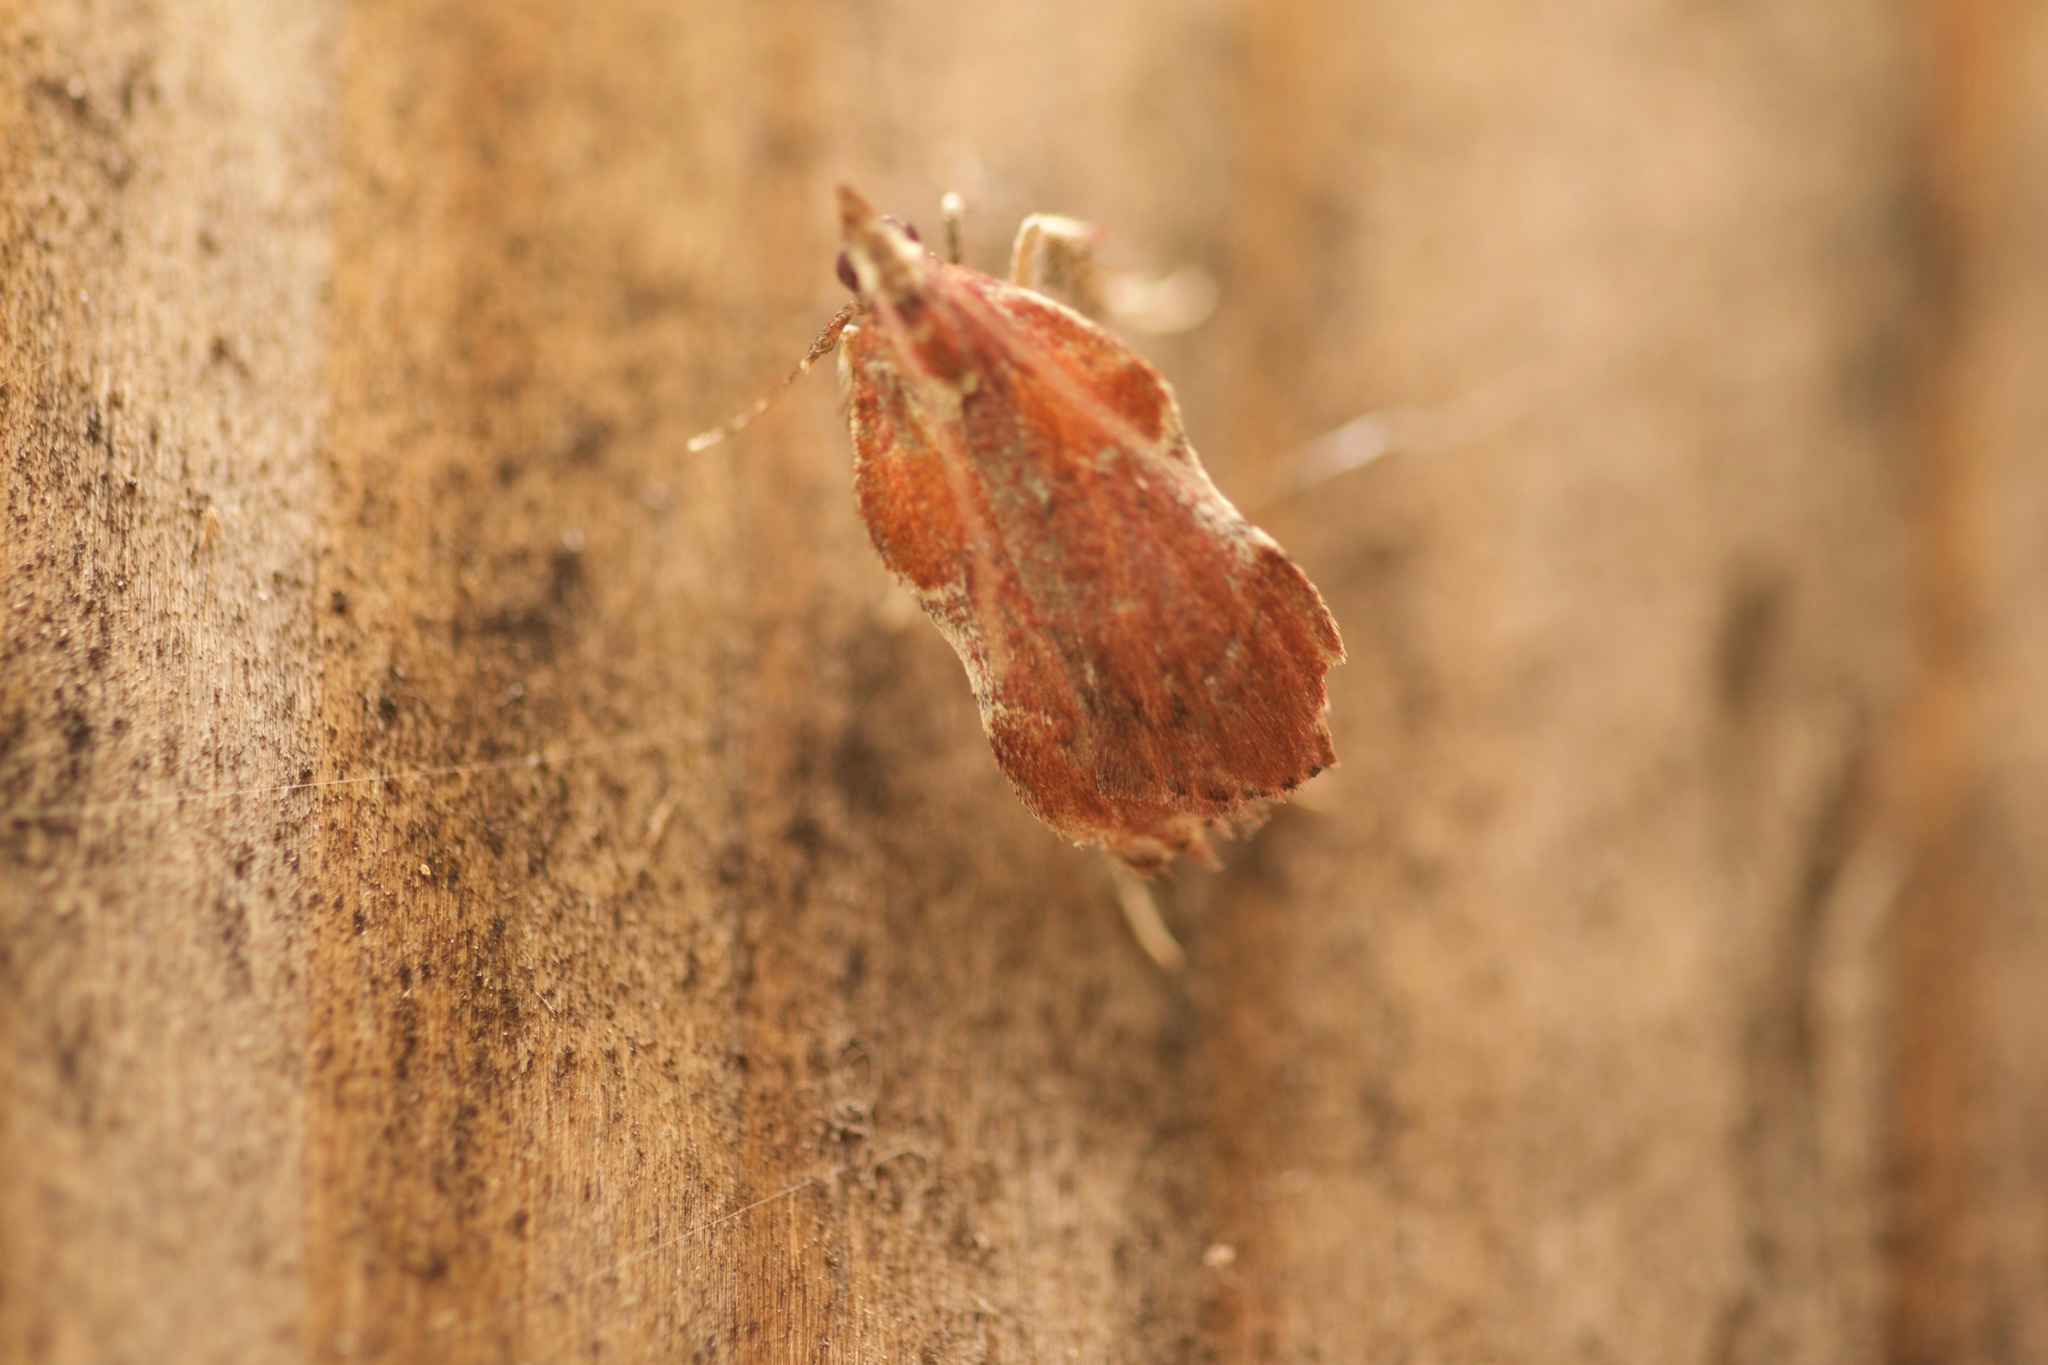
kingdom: Animalia
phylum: Arthropoda
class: Insecta
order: Lepidoptera
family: Pyralidae
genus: Galasa
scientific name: Galasa nigrinodis
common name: Boxwood leaftier moth
